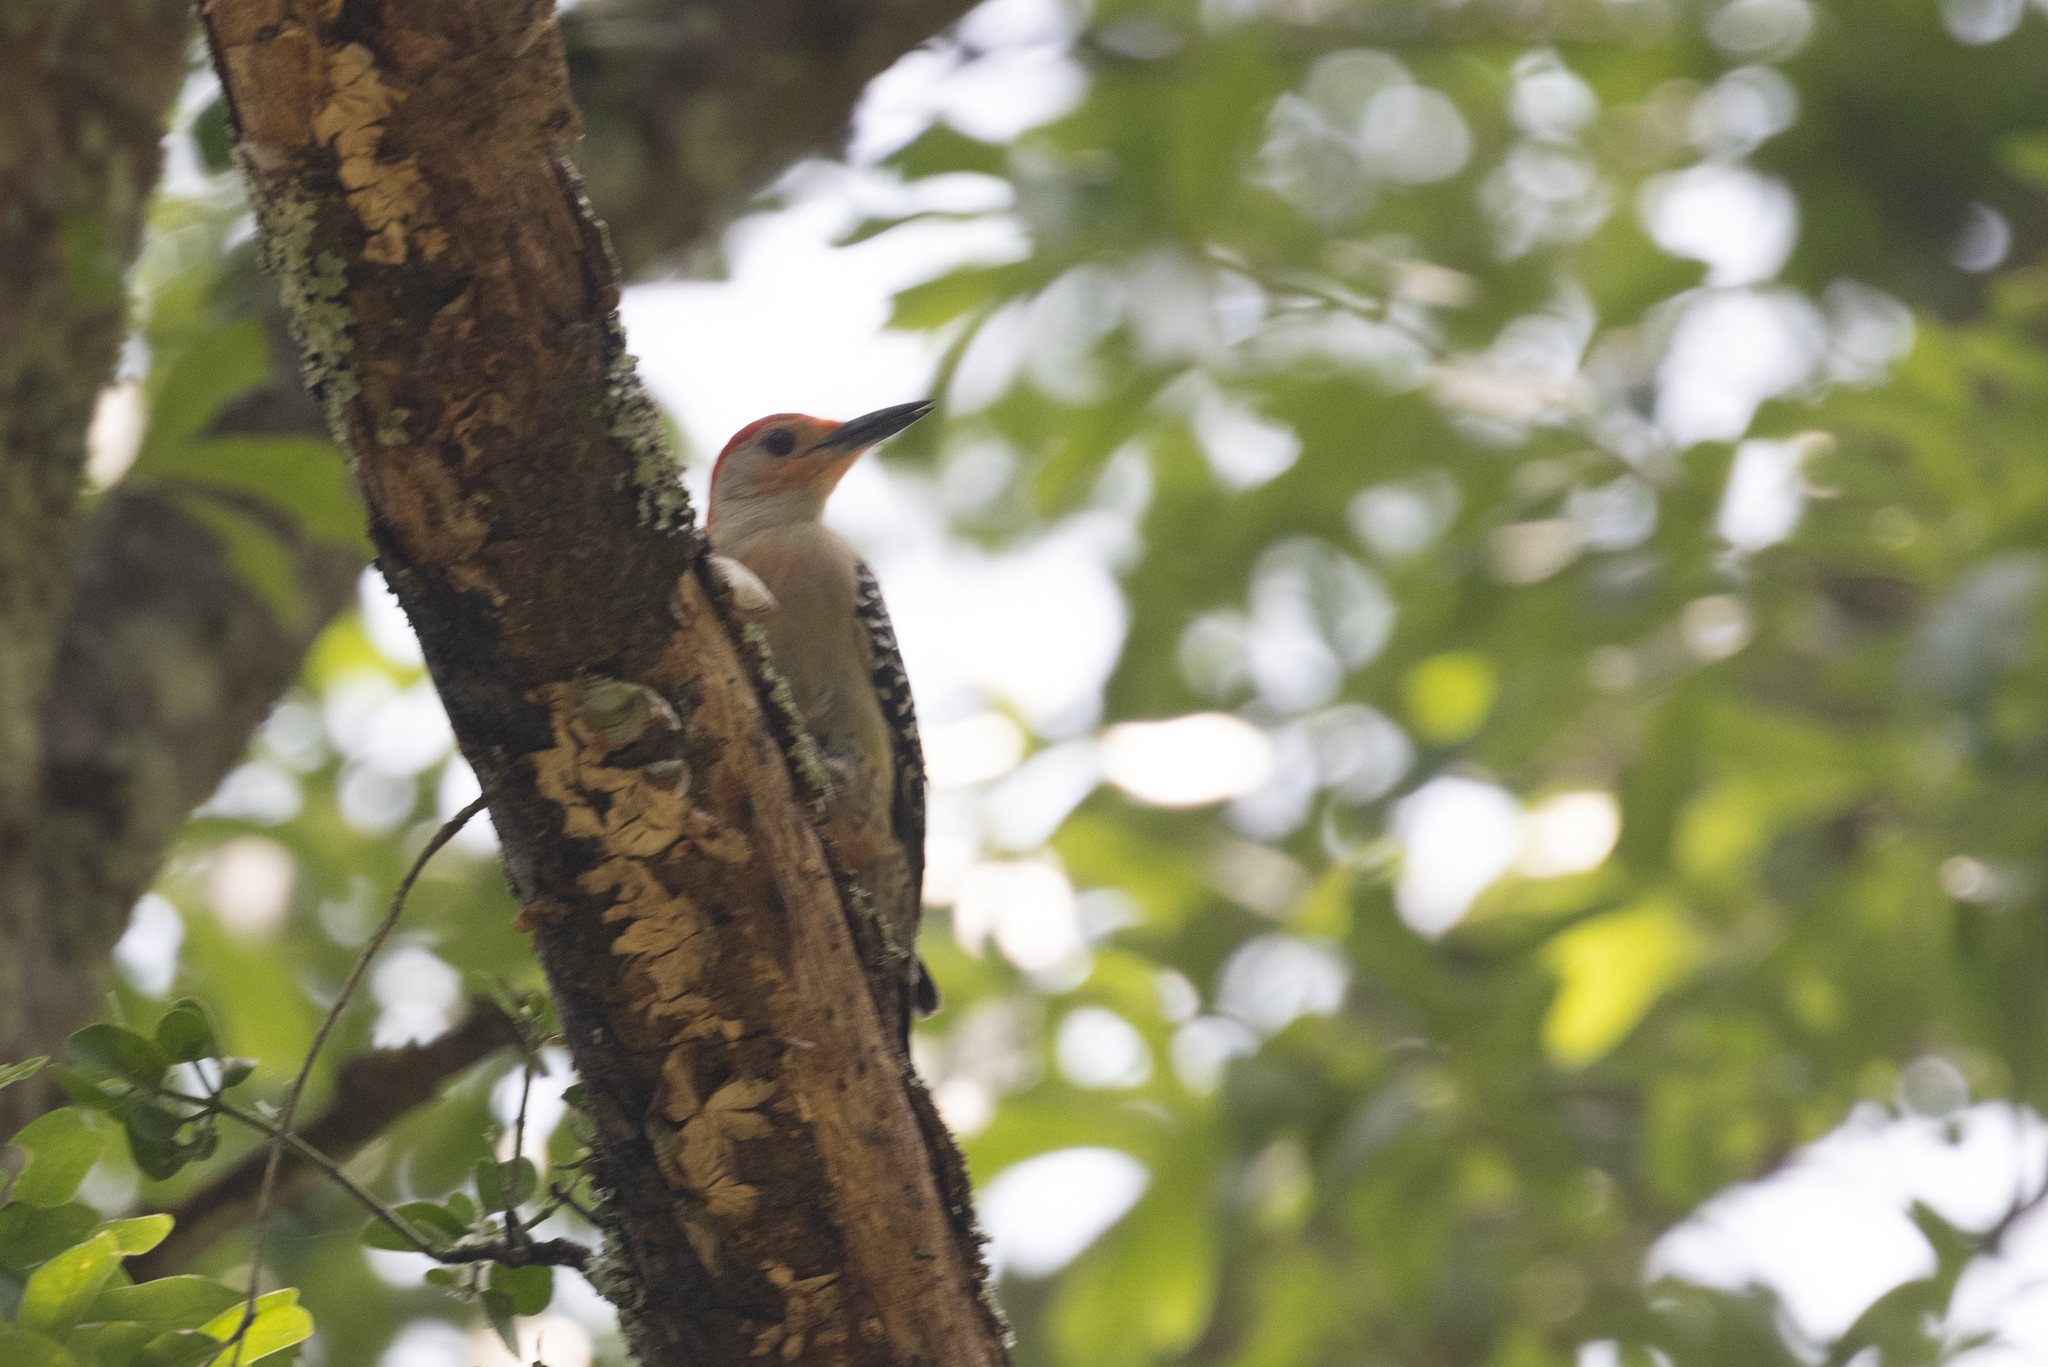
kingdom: Animalia
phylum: Chordata
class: Aves
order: Piciformes
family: Picidae
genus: Melanerpes
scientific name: Melanerpes carolinus
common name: Red-bellied woodpecker
